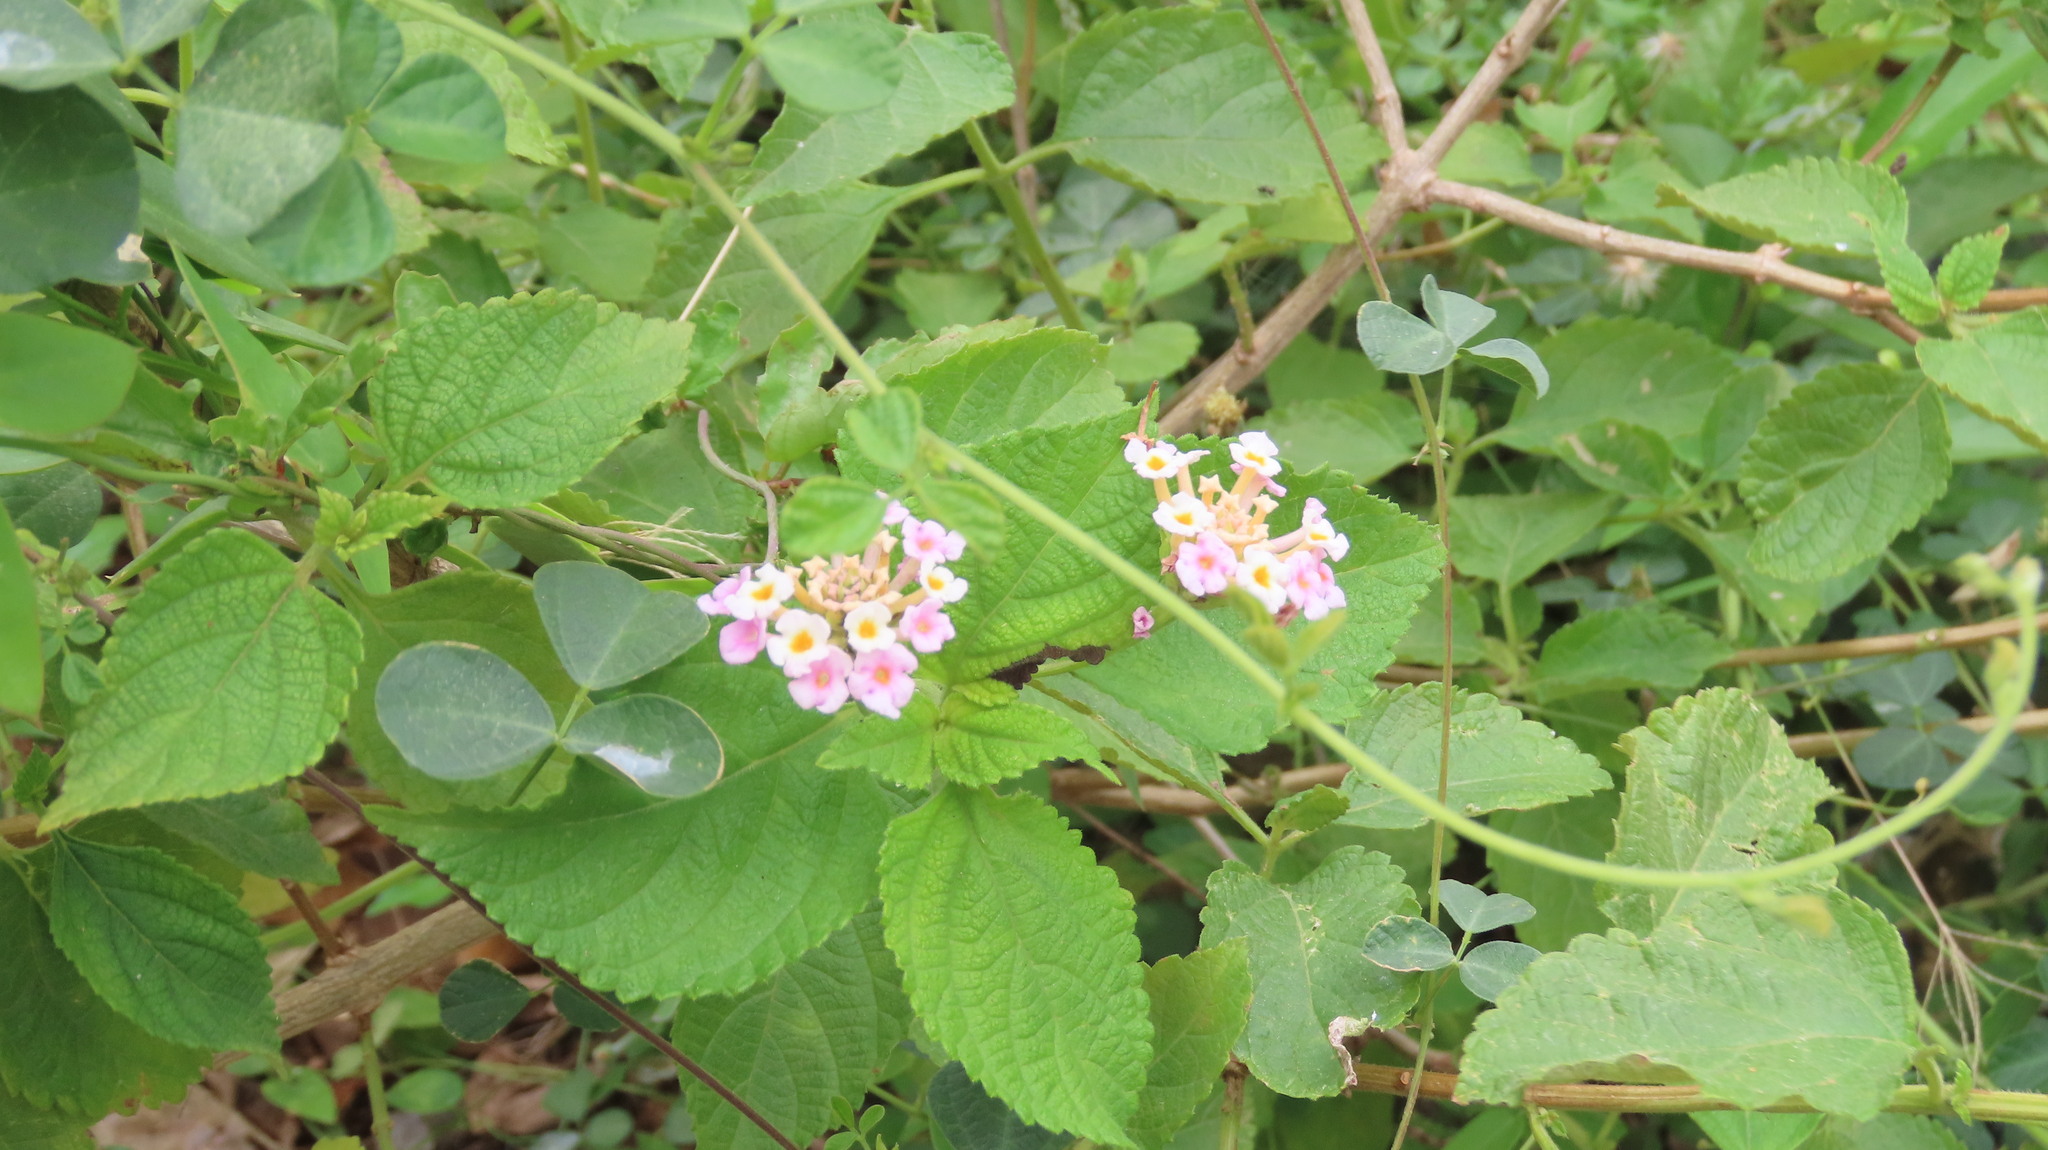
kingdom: Plantae
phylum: Tracheophyta
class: Magnoliopsida
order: Lamiales
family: Verbenaceae
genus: Lantana
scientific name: Lantana camara
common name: Lantana
